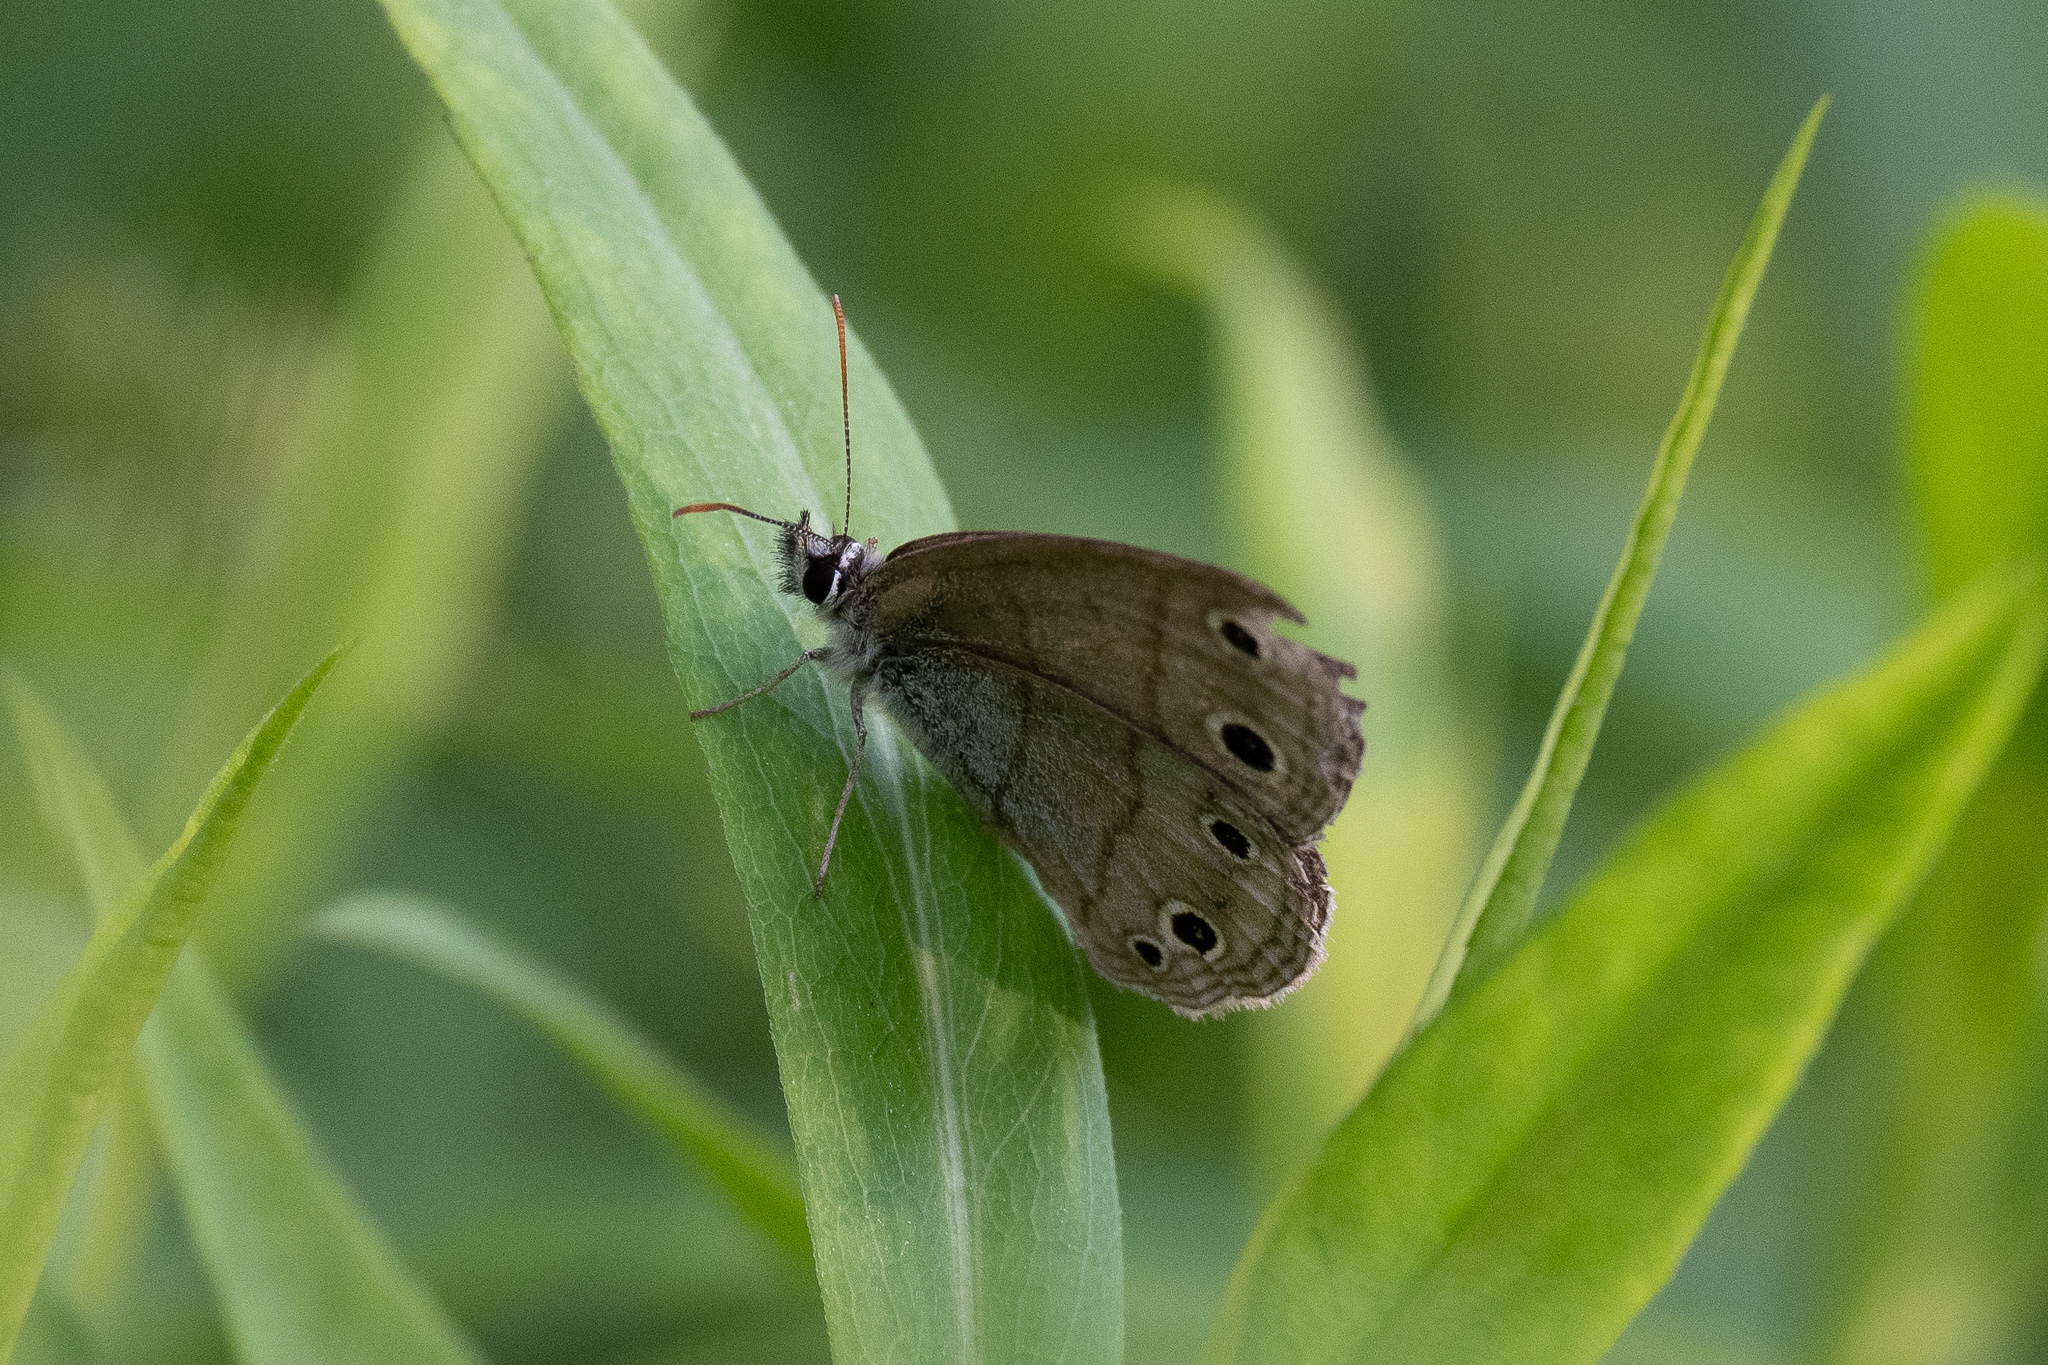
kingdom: Animalia
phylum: Arthropoda
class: Insecta
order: Lepidoptera
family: Nymphalidae
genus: Euptychia
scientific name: Euptychia cymela
